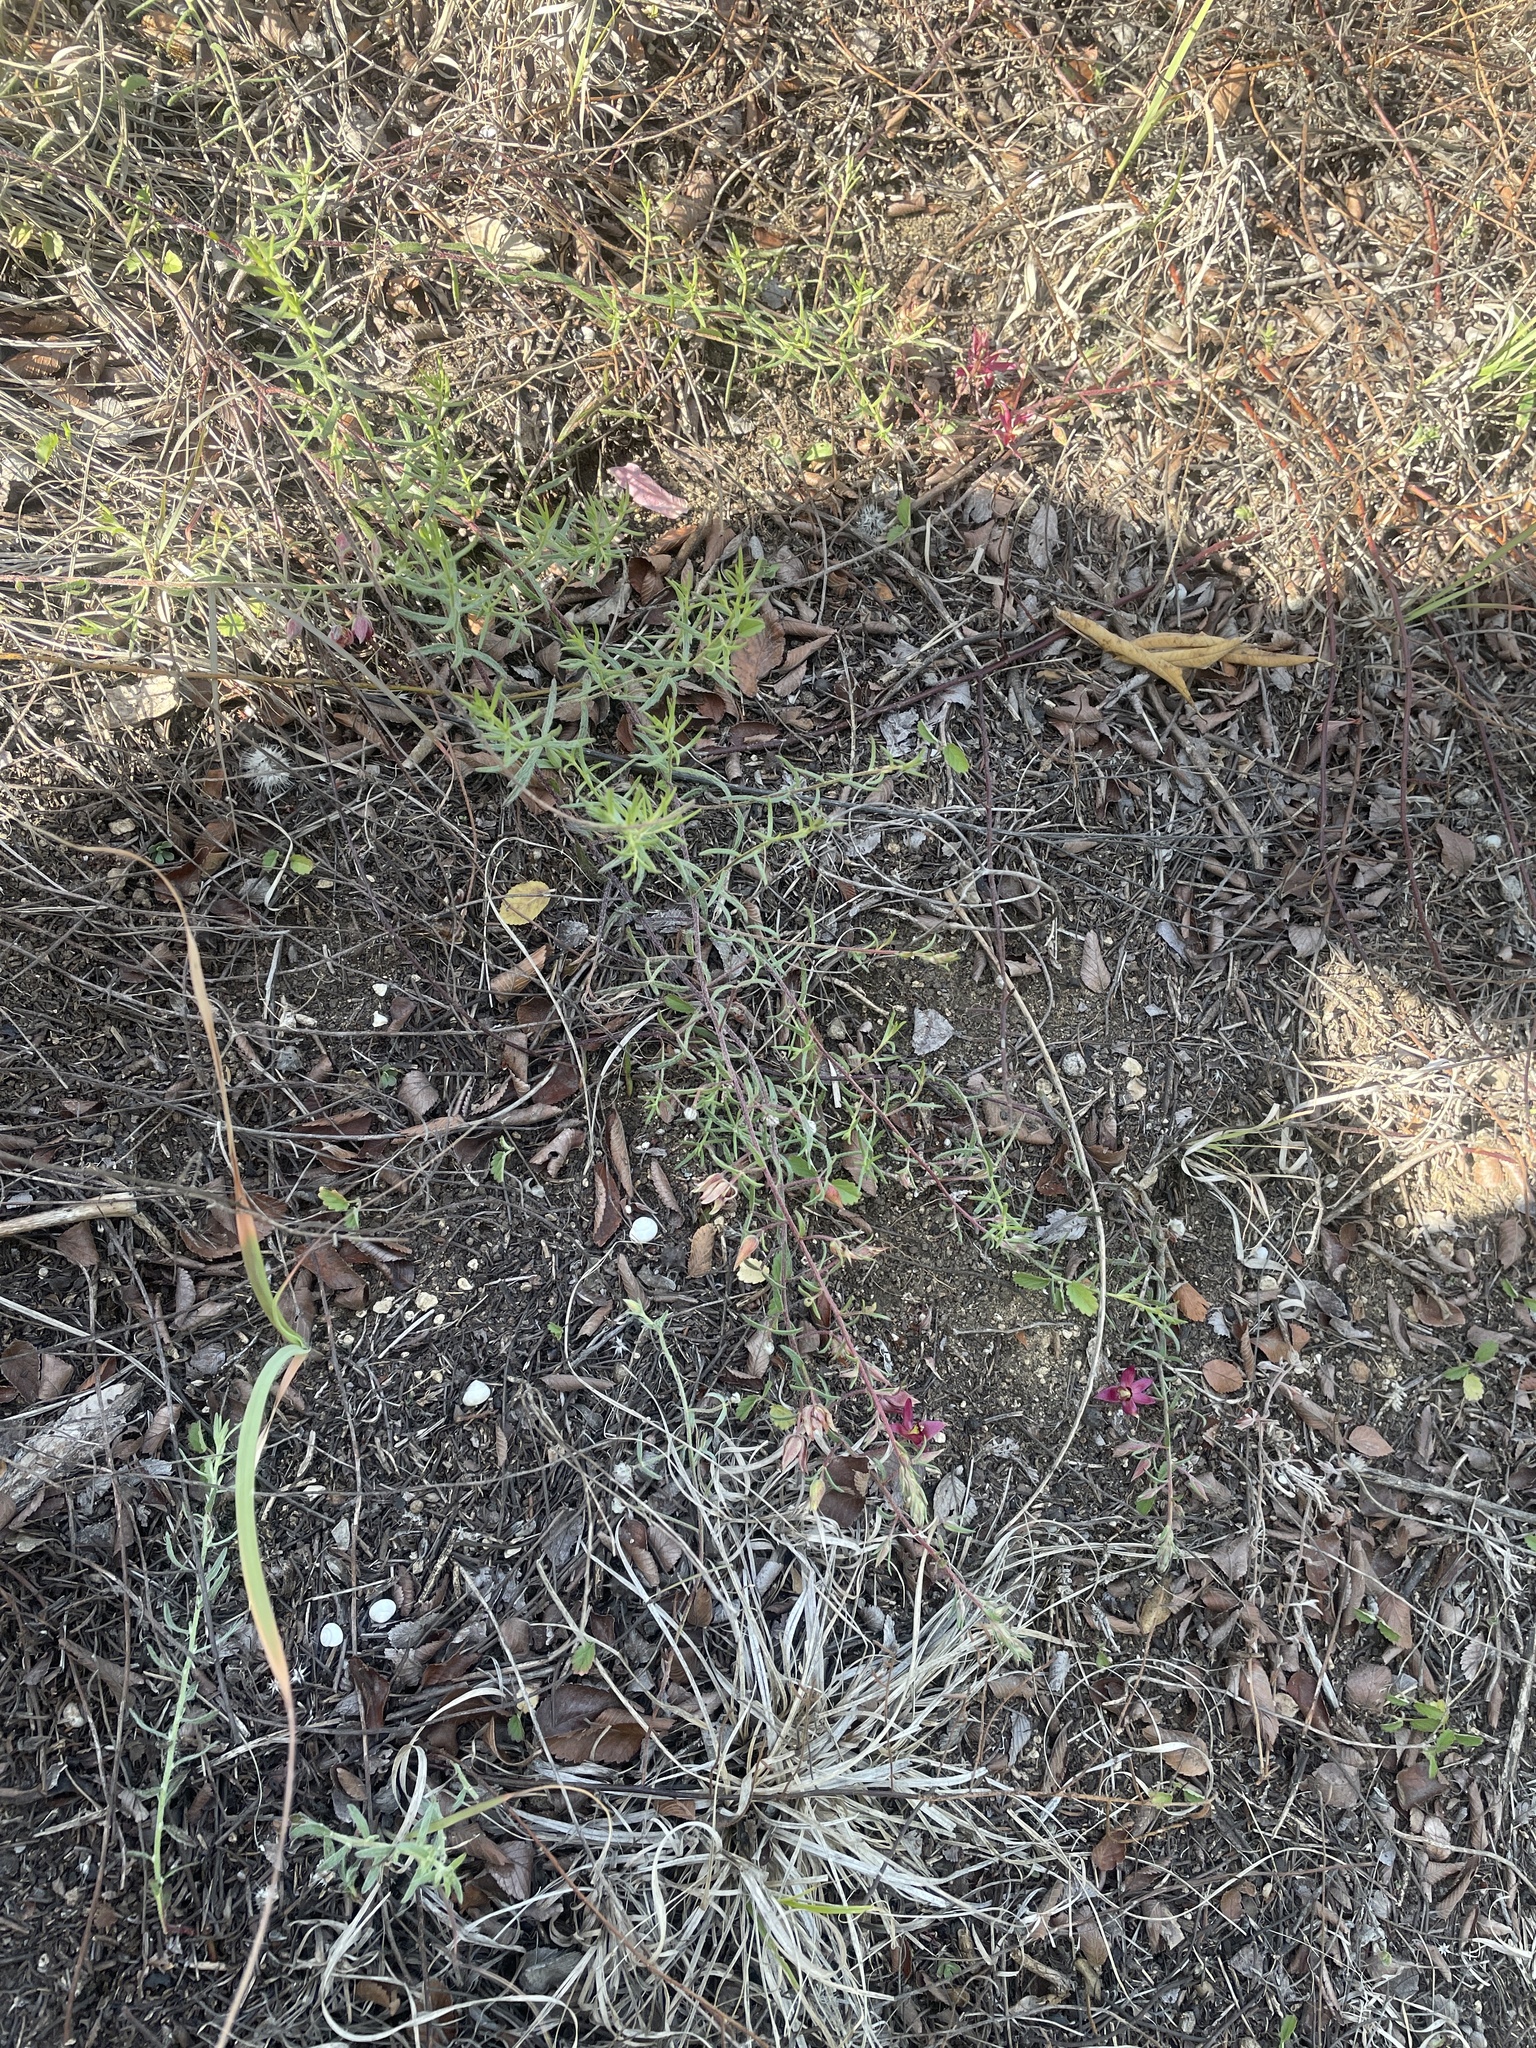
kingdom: Plantae
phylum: Tracheophyta
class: Magnoliopsida
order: Zygophyllales
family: Krameriaceae
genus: Krameria
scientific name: Krameria lanceolata
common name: Ratany
